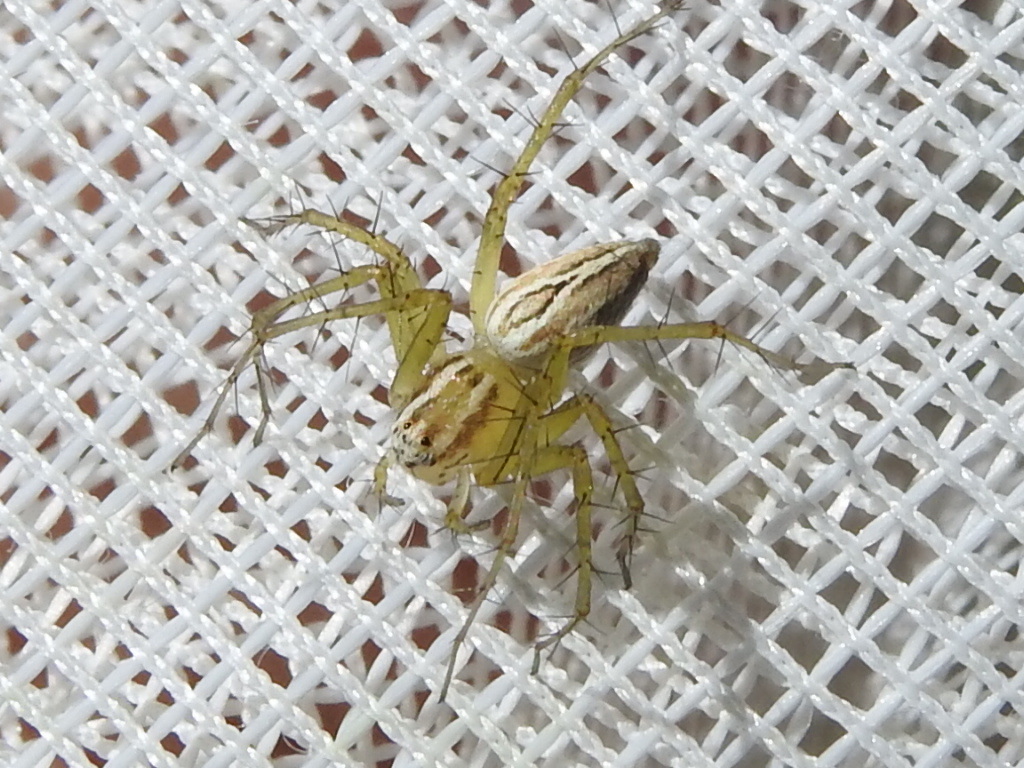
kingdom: Animalia
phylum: Arthropoda
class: Arachnida
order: Araneae
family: Oxyopidae
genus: Oxyopes
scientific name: Oxyopes salticus
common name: Lynx spiders
